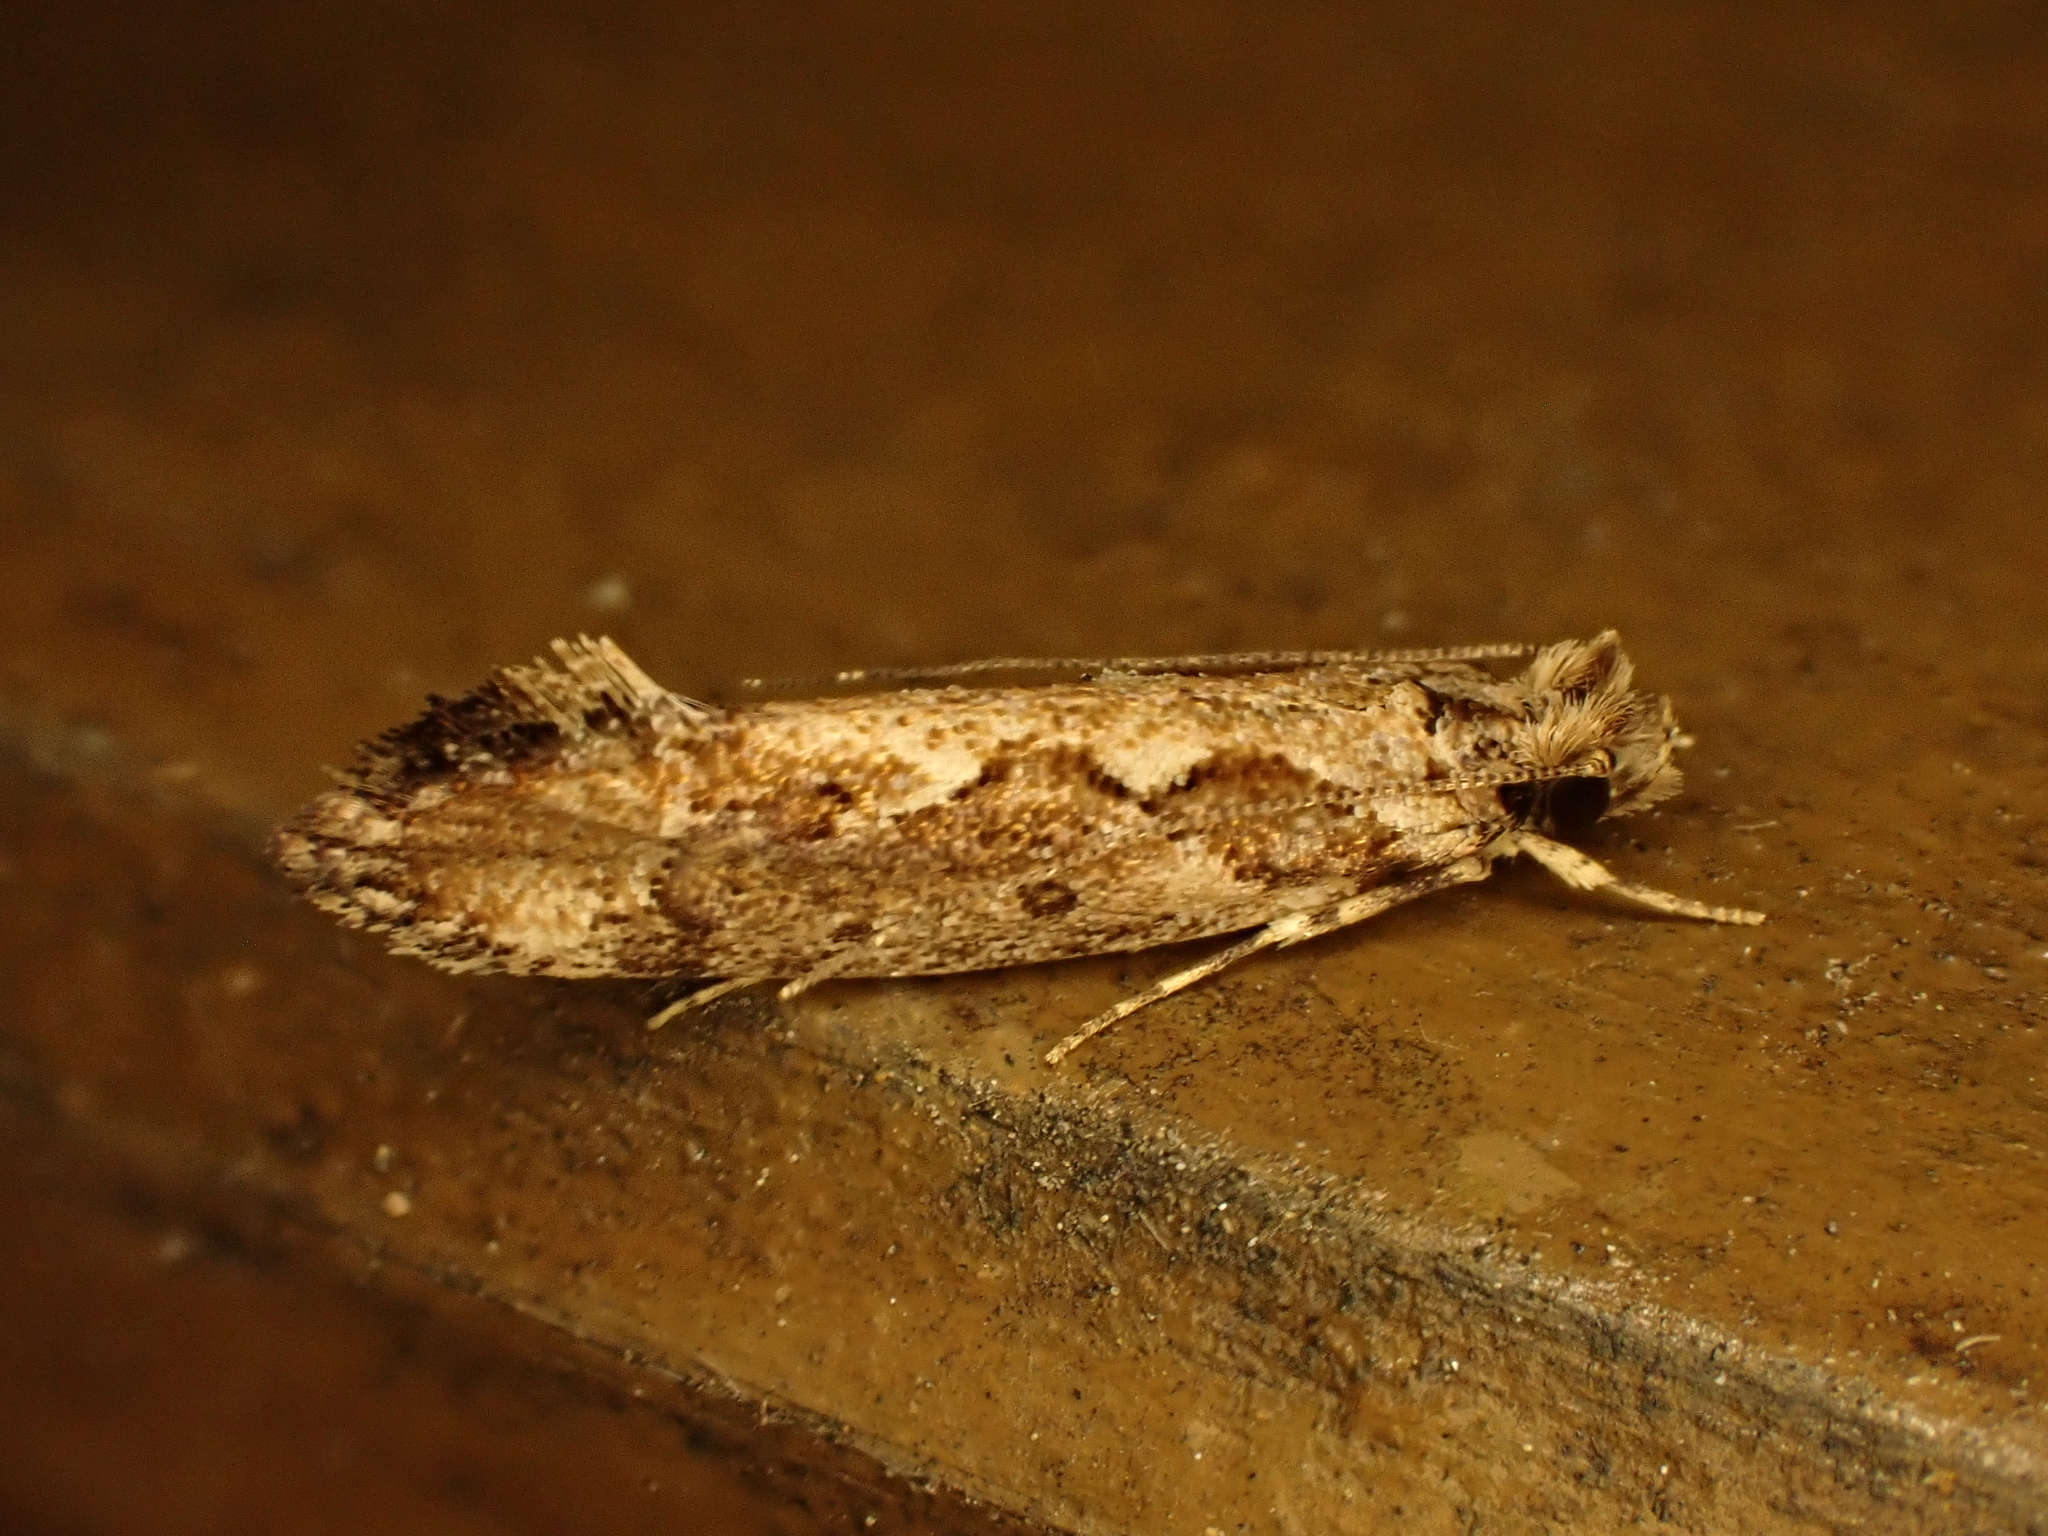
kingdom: Animalia
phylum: Arthropoda
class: Insecta
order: Lepidoptera
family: Tineidae
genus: Erechthias
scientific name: Erechthias capnitis
